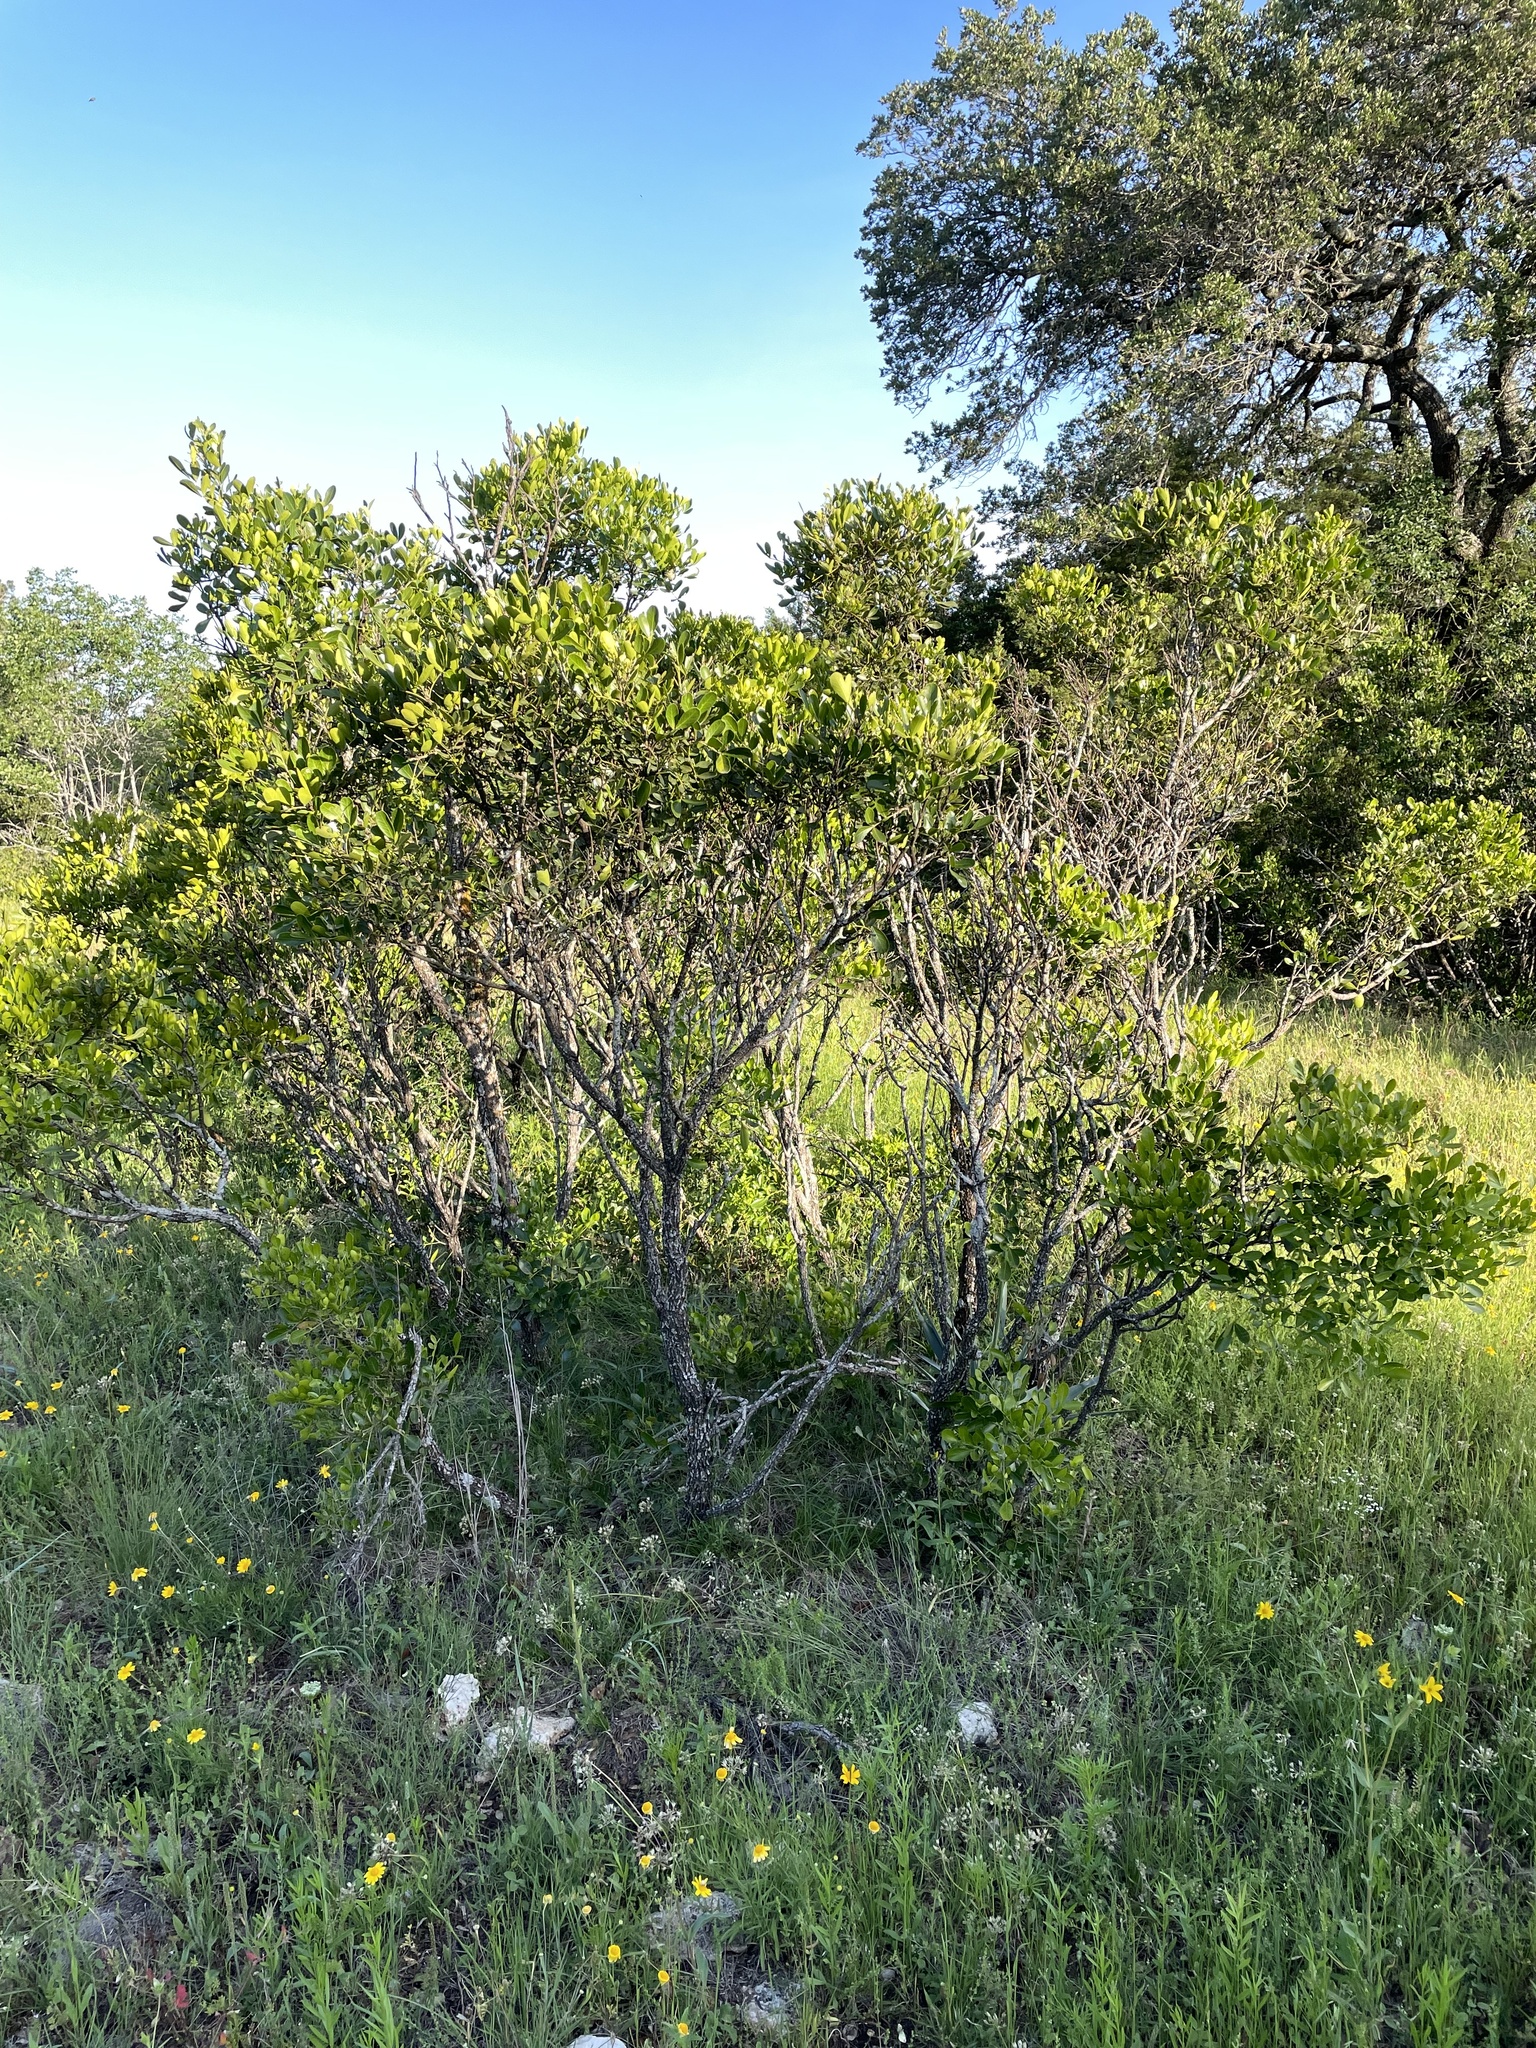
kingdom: Plantae
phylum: Tracheophyta
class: Magnoliopsida
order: Fabales
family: Fabaceae
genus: Dermatophyllum
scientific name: Dermatophyllum secundiflorum
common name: Texas-mountain-laurel
